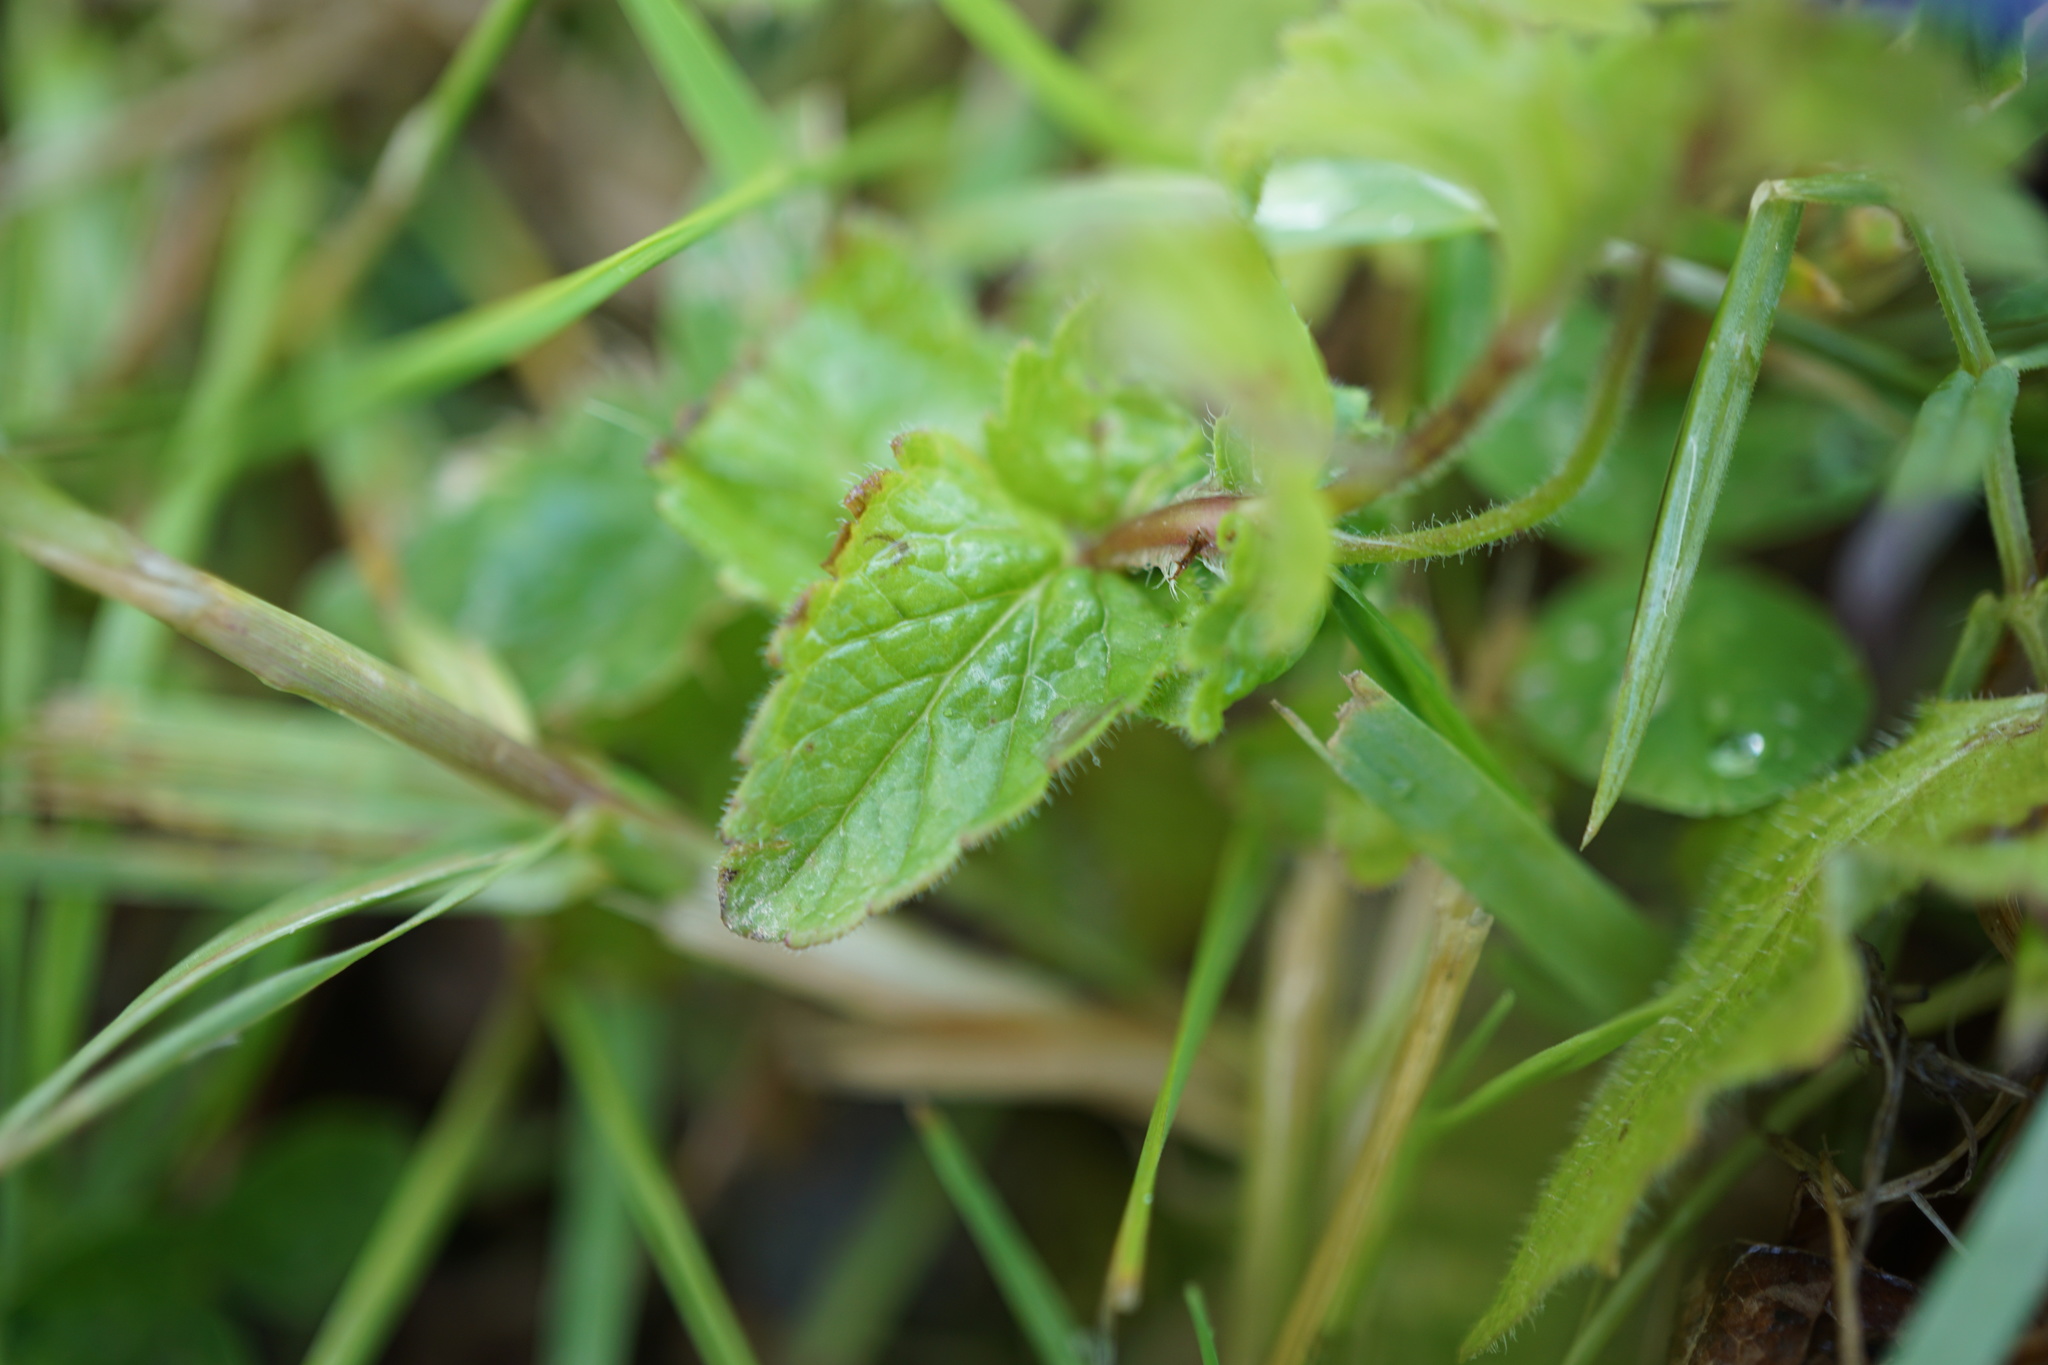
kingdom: Plantae
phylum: Tracheophyta
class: Magnoliopsida
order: Lamiales
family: Plantaginaceae
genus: Veronica
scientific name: Veronica chamaedrys
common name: Germander speedwell
